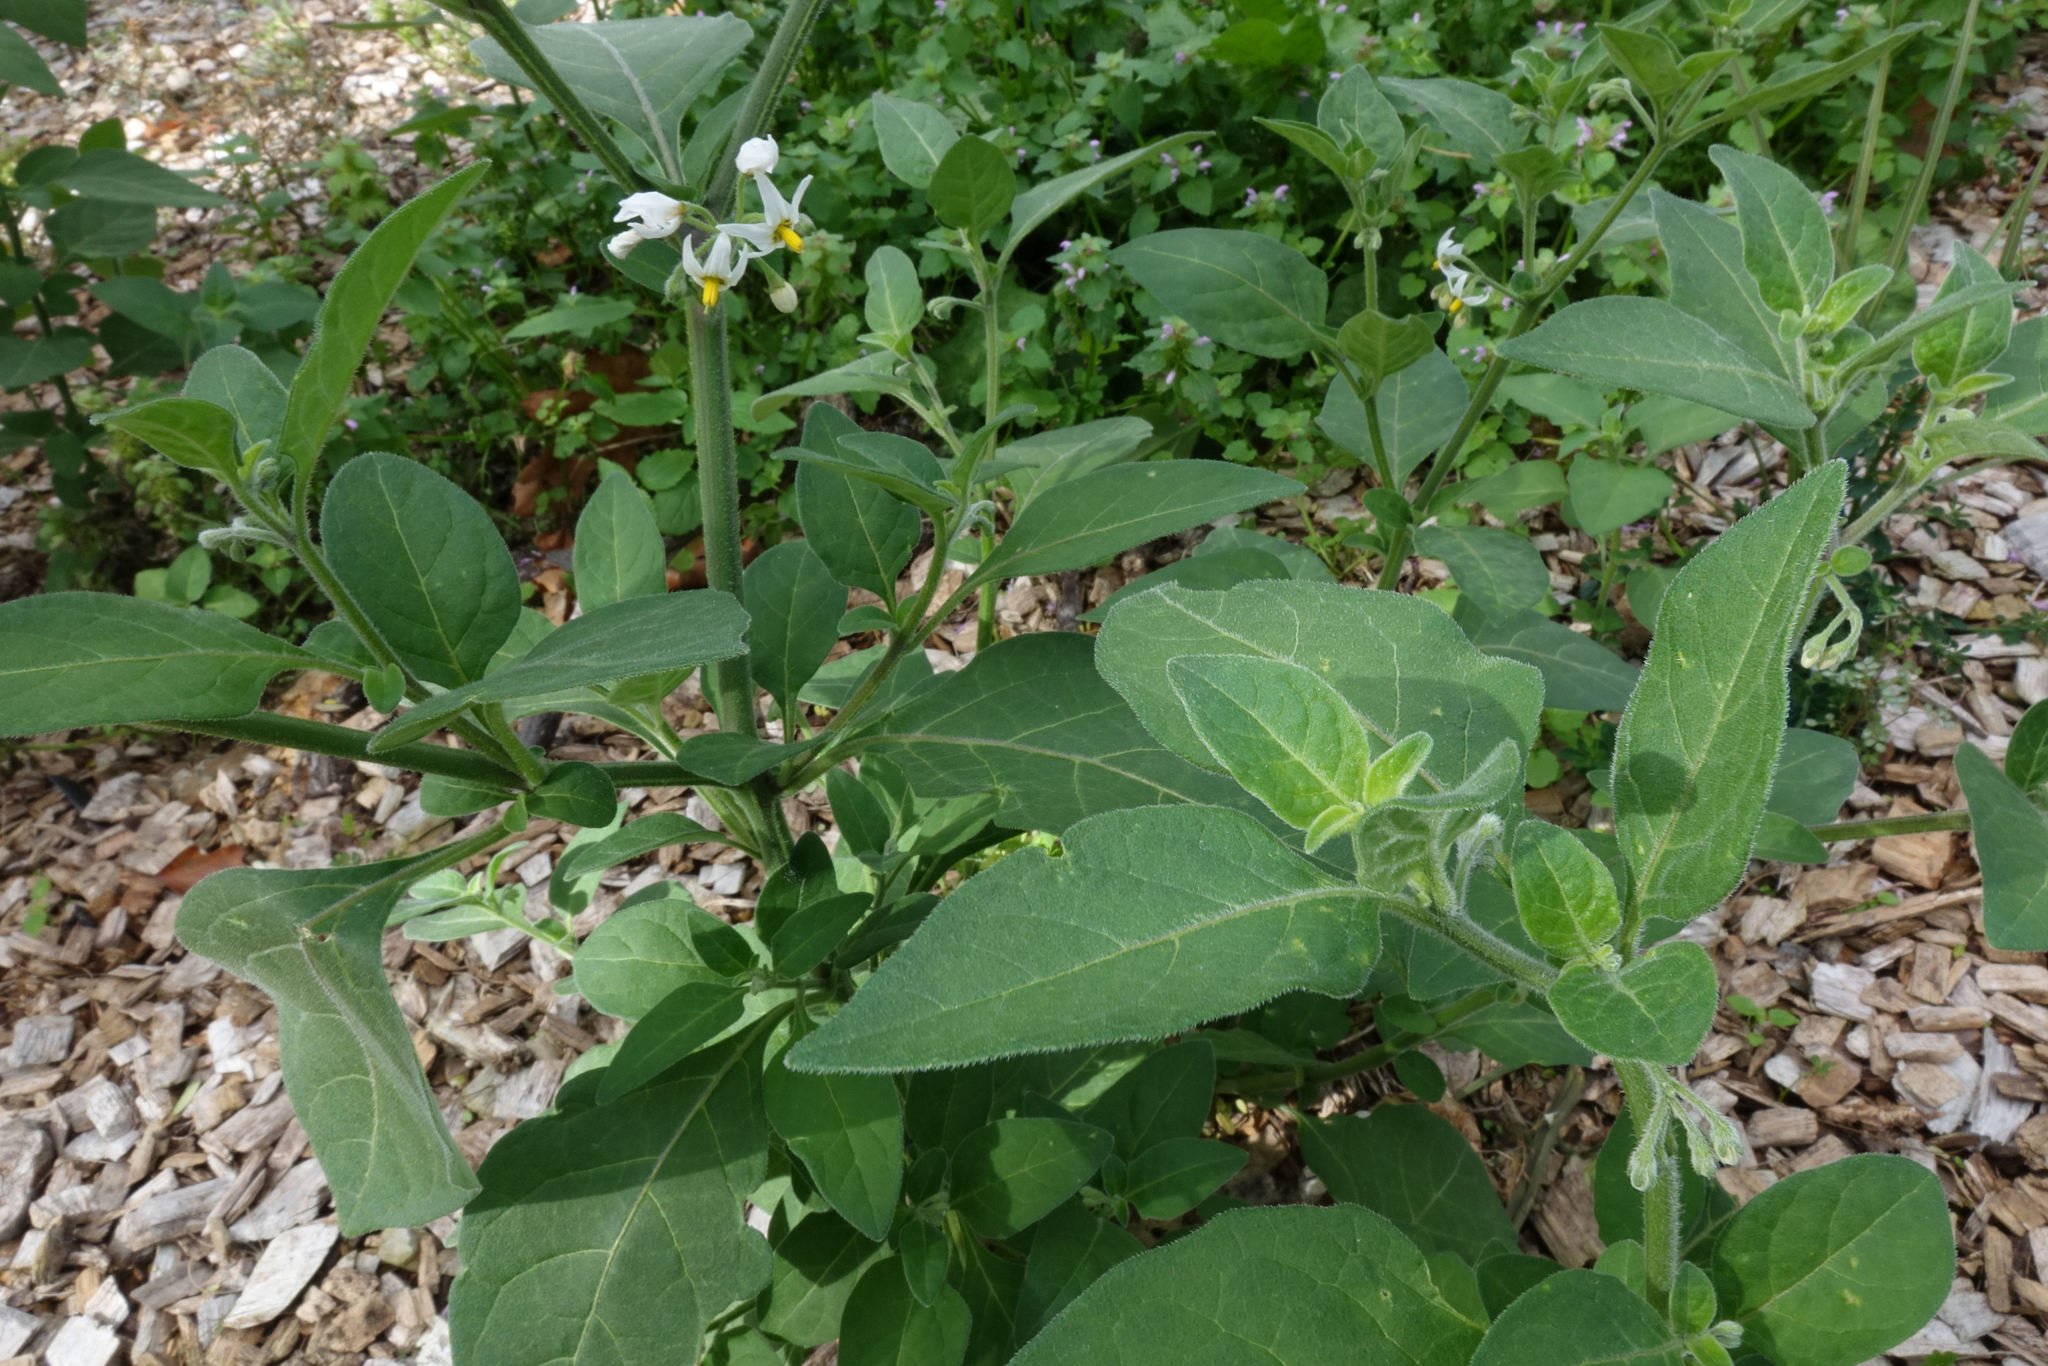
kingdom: Plantae
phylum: Tracheophyta
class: Magnoliopsida
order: Solanales
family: Solanaceae
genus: Solanum
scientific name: Solanum chenopodioides
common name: Tall nightshade
